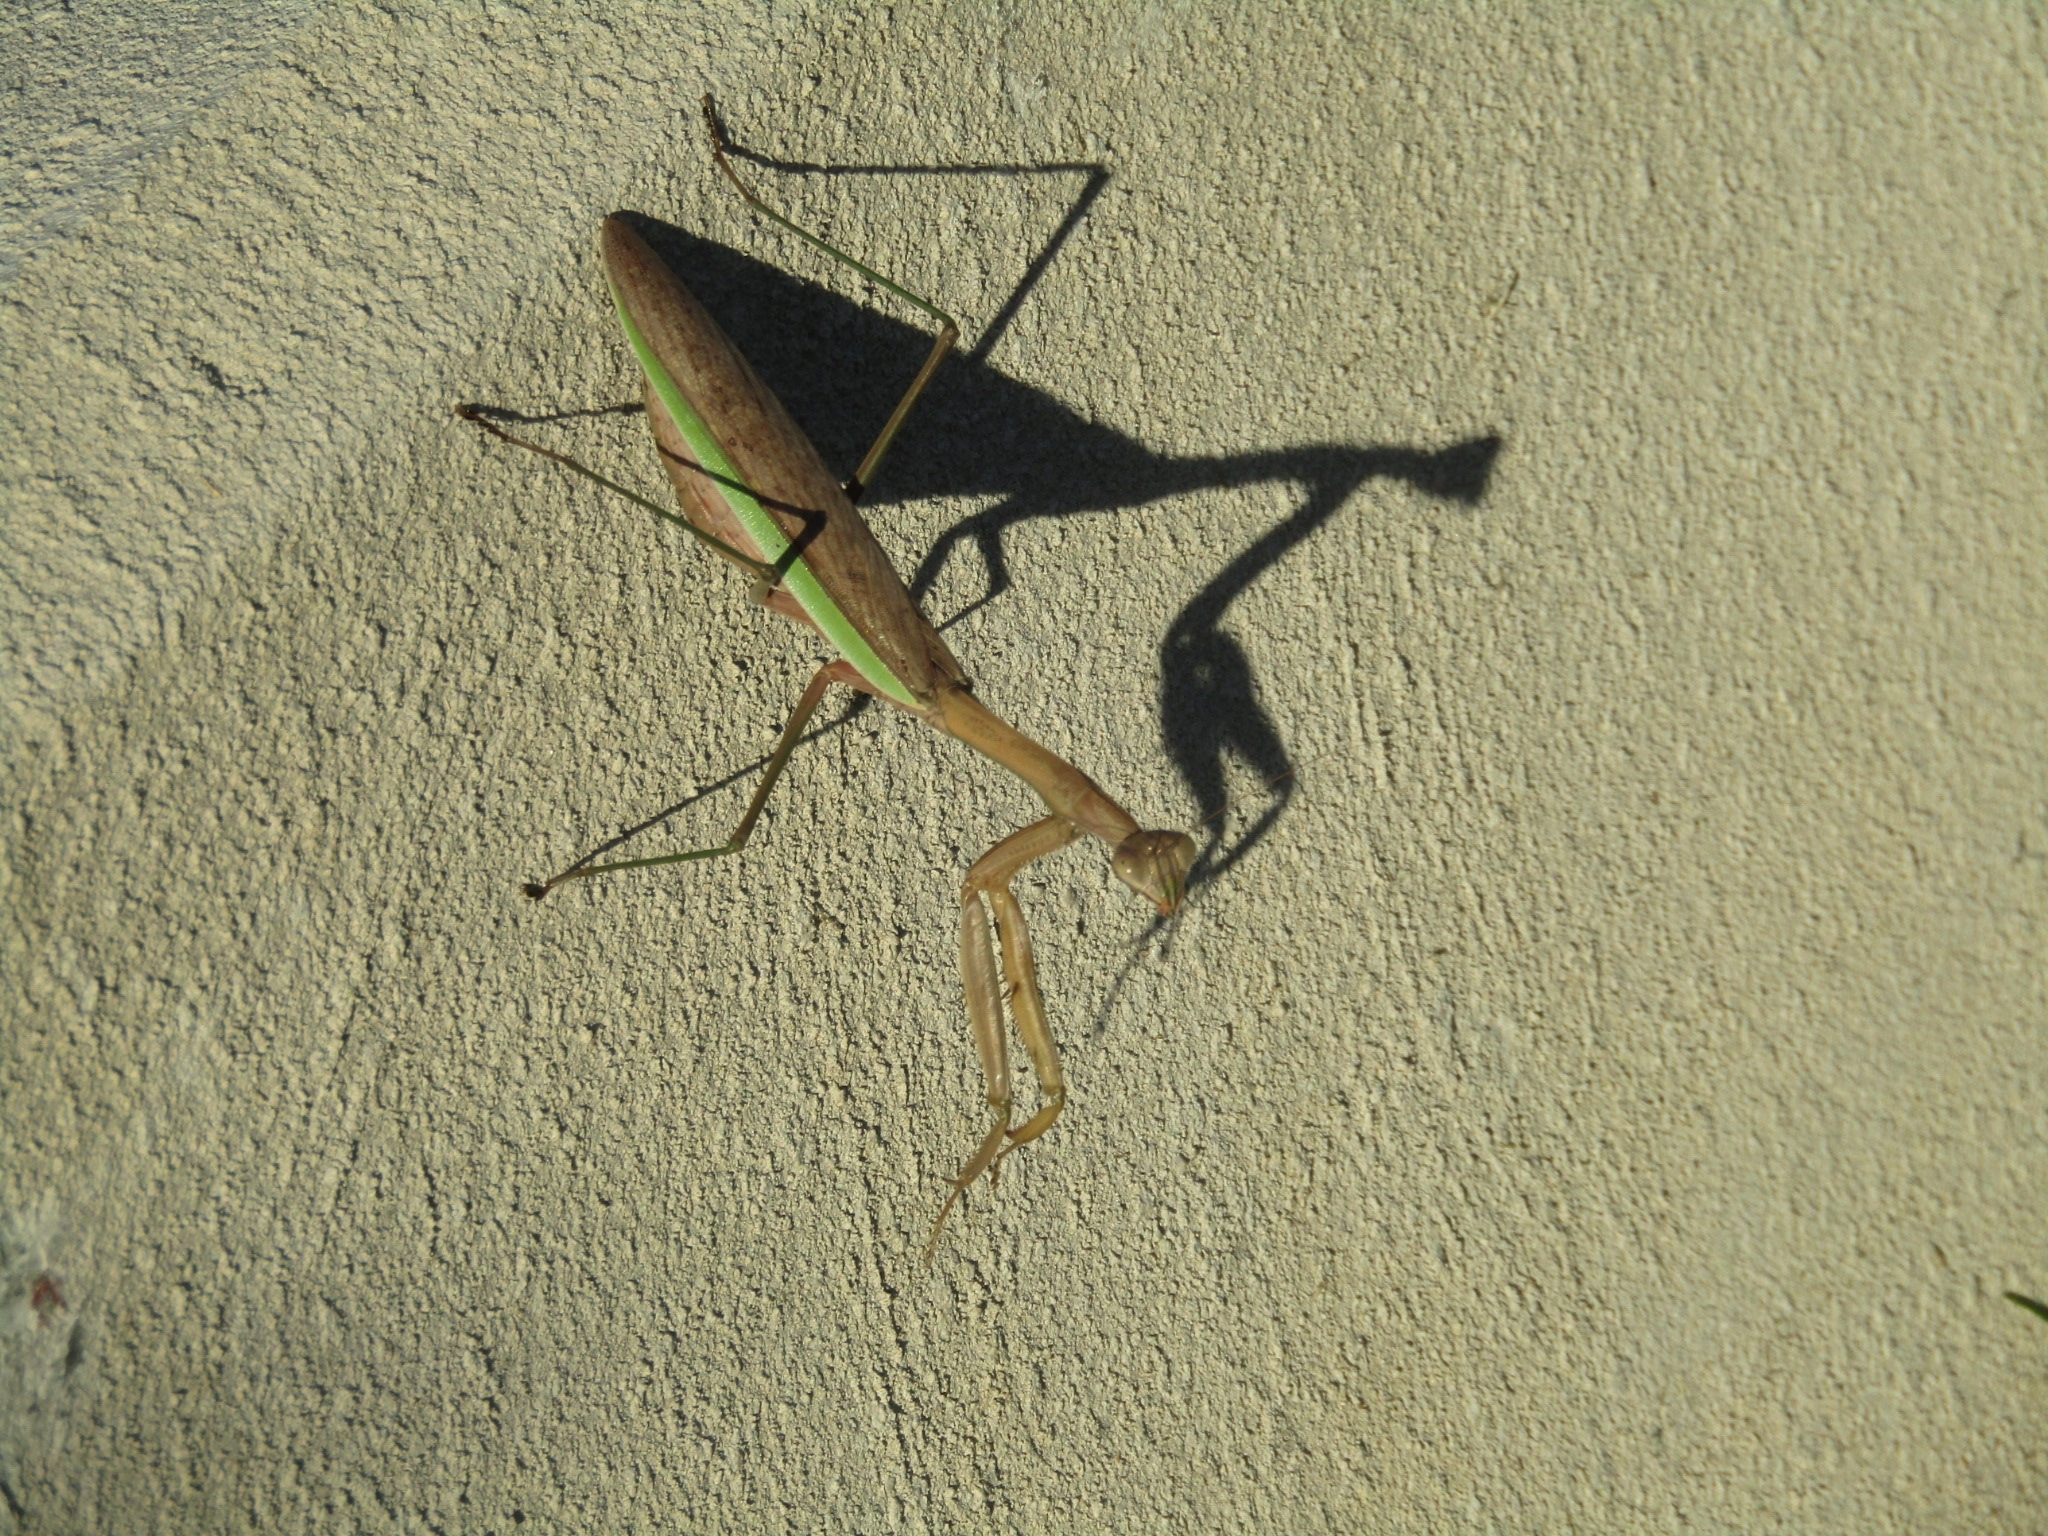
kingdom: Animalia
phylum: Arthropoda
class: Insecta
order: Mantodea
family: Mantidae
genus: Tenodera
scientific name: Tenodera sinensis
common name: Chinese mantis
